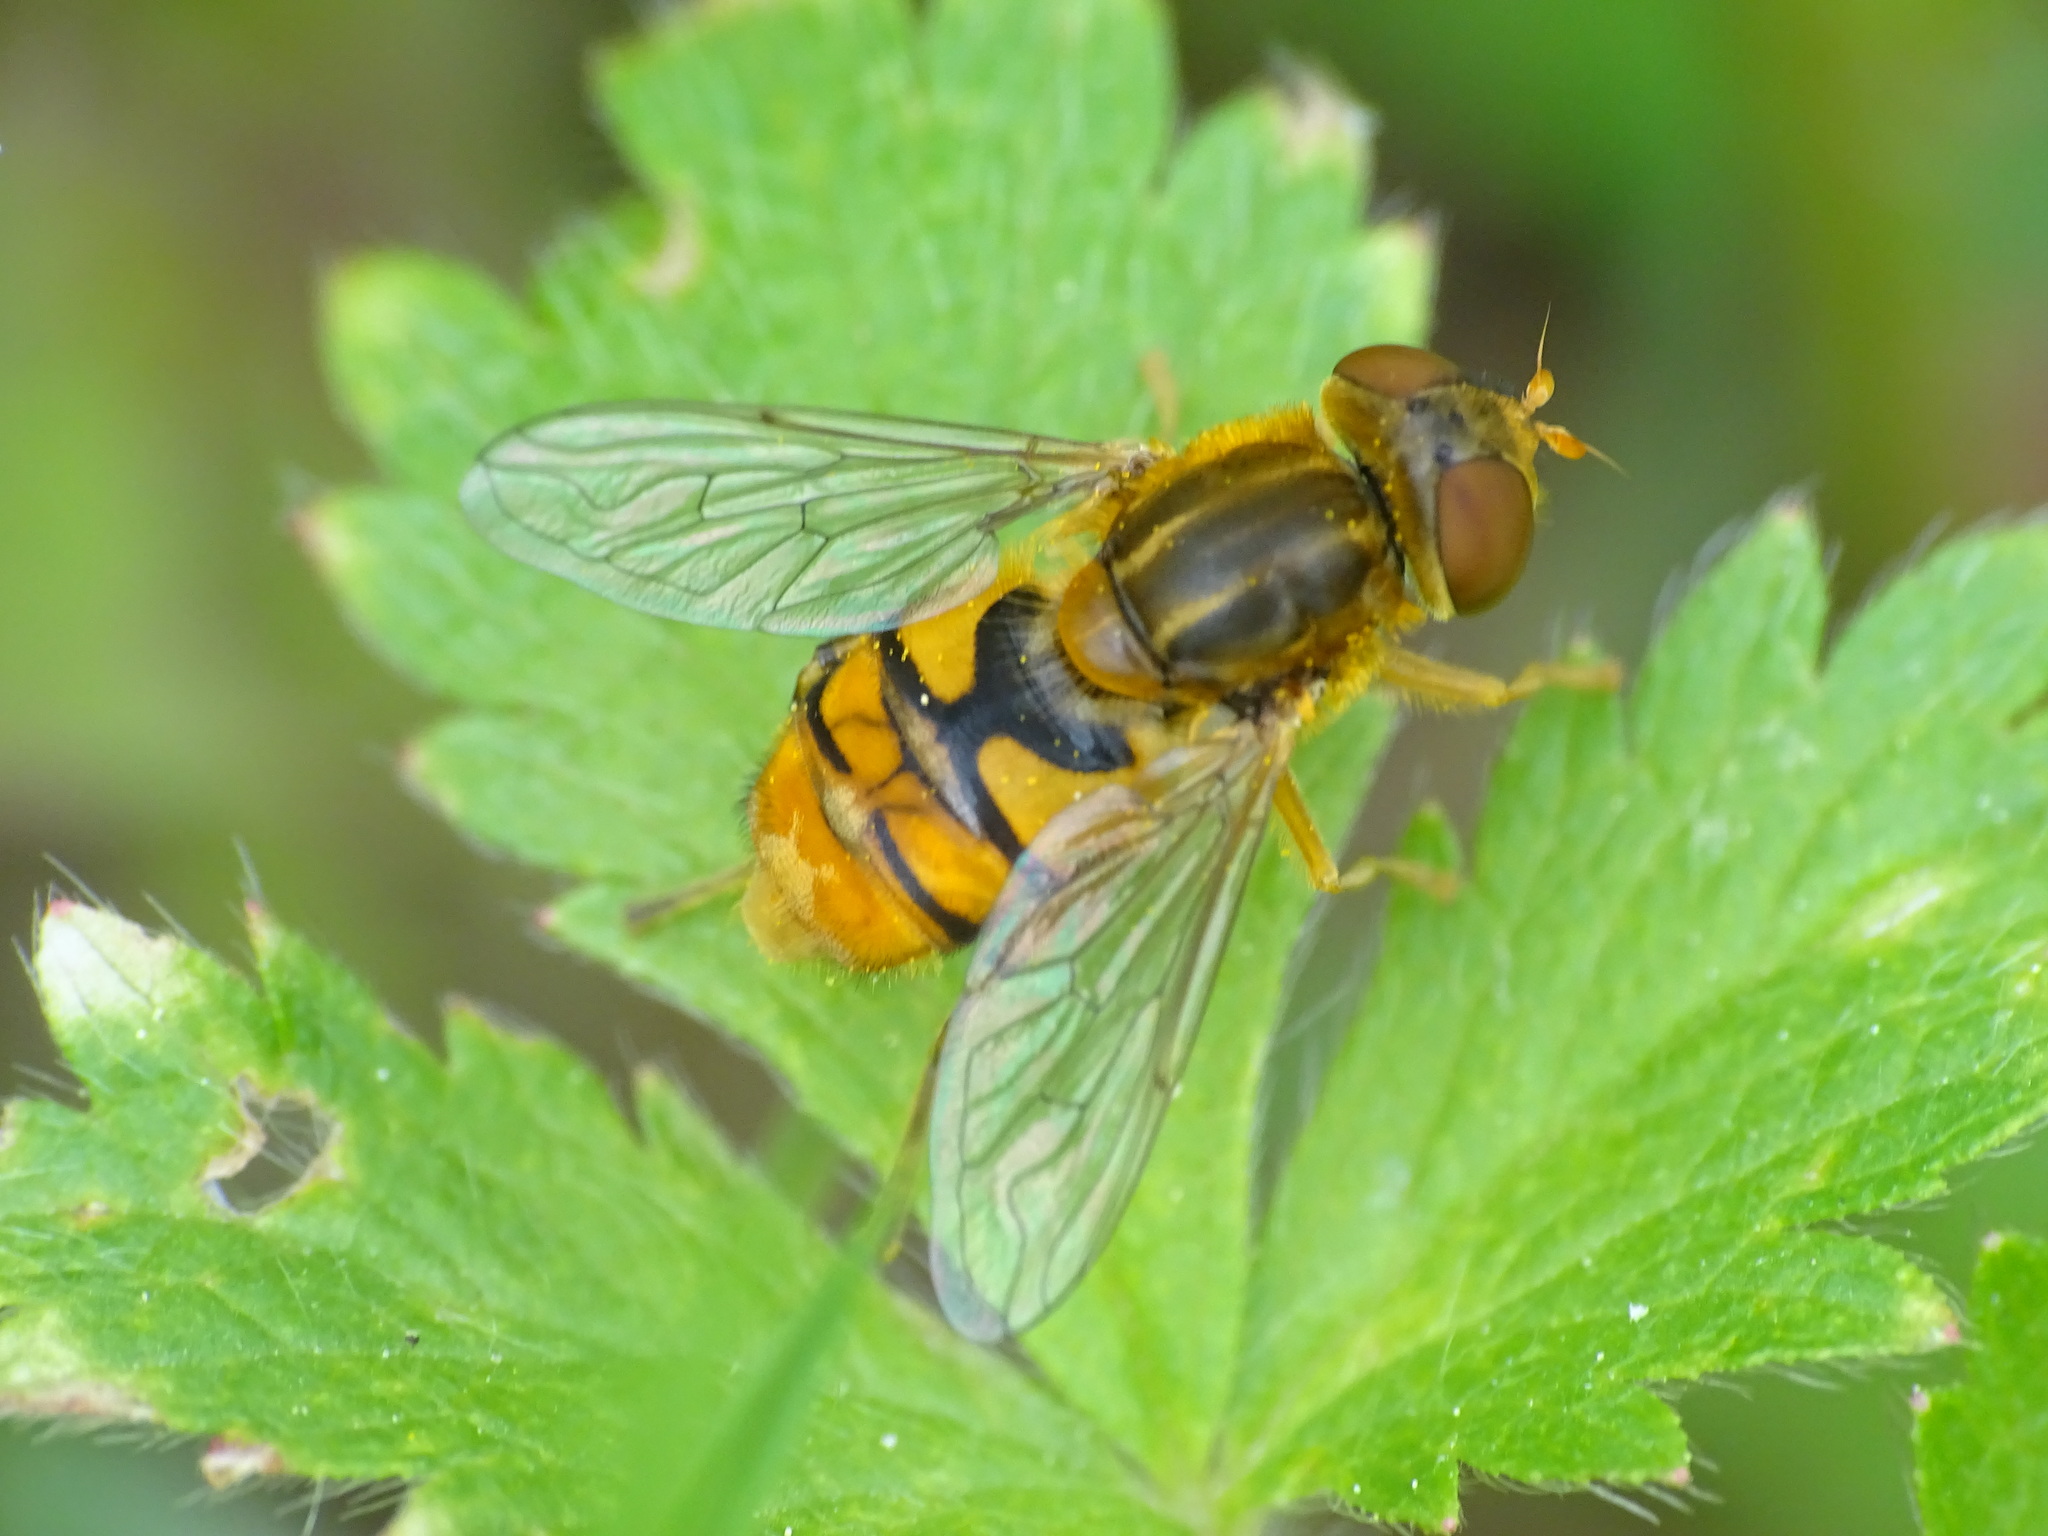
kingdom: Animalia
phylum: Arthropoda
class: Insecta
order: Diptera
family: Syrphidae
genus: Parhelophilus
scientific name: Parhelophilus obsoletus
